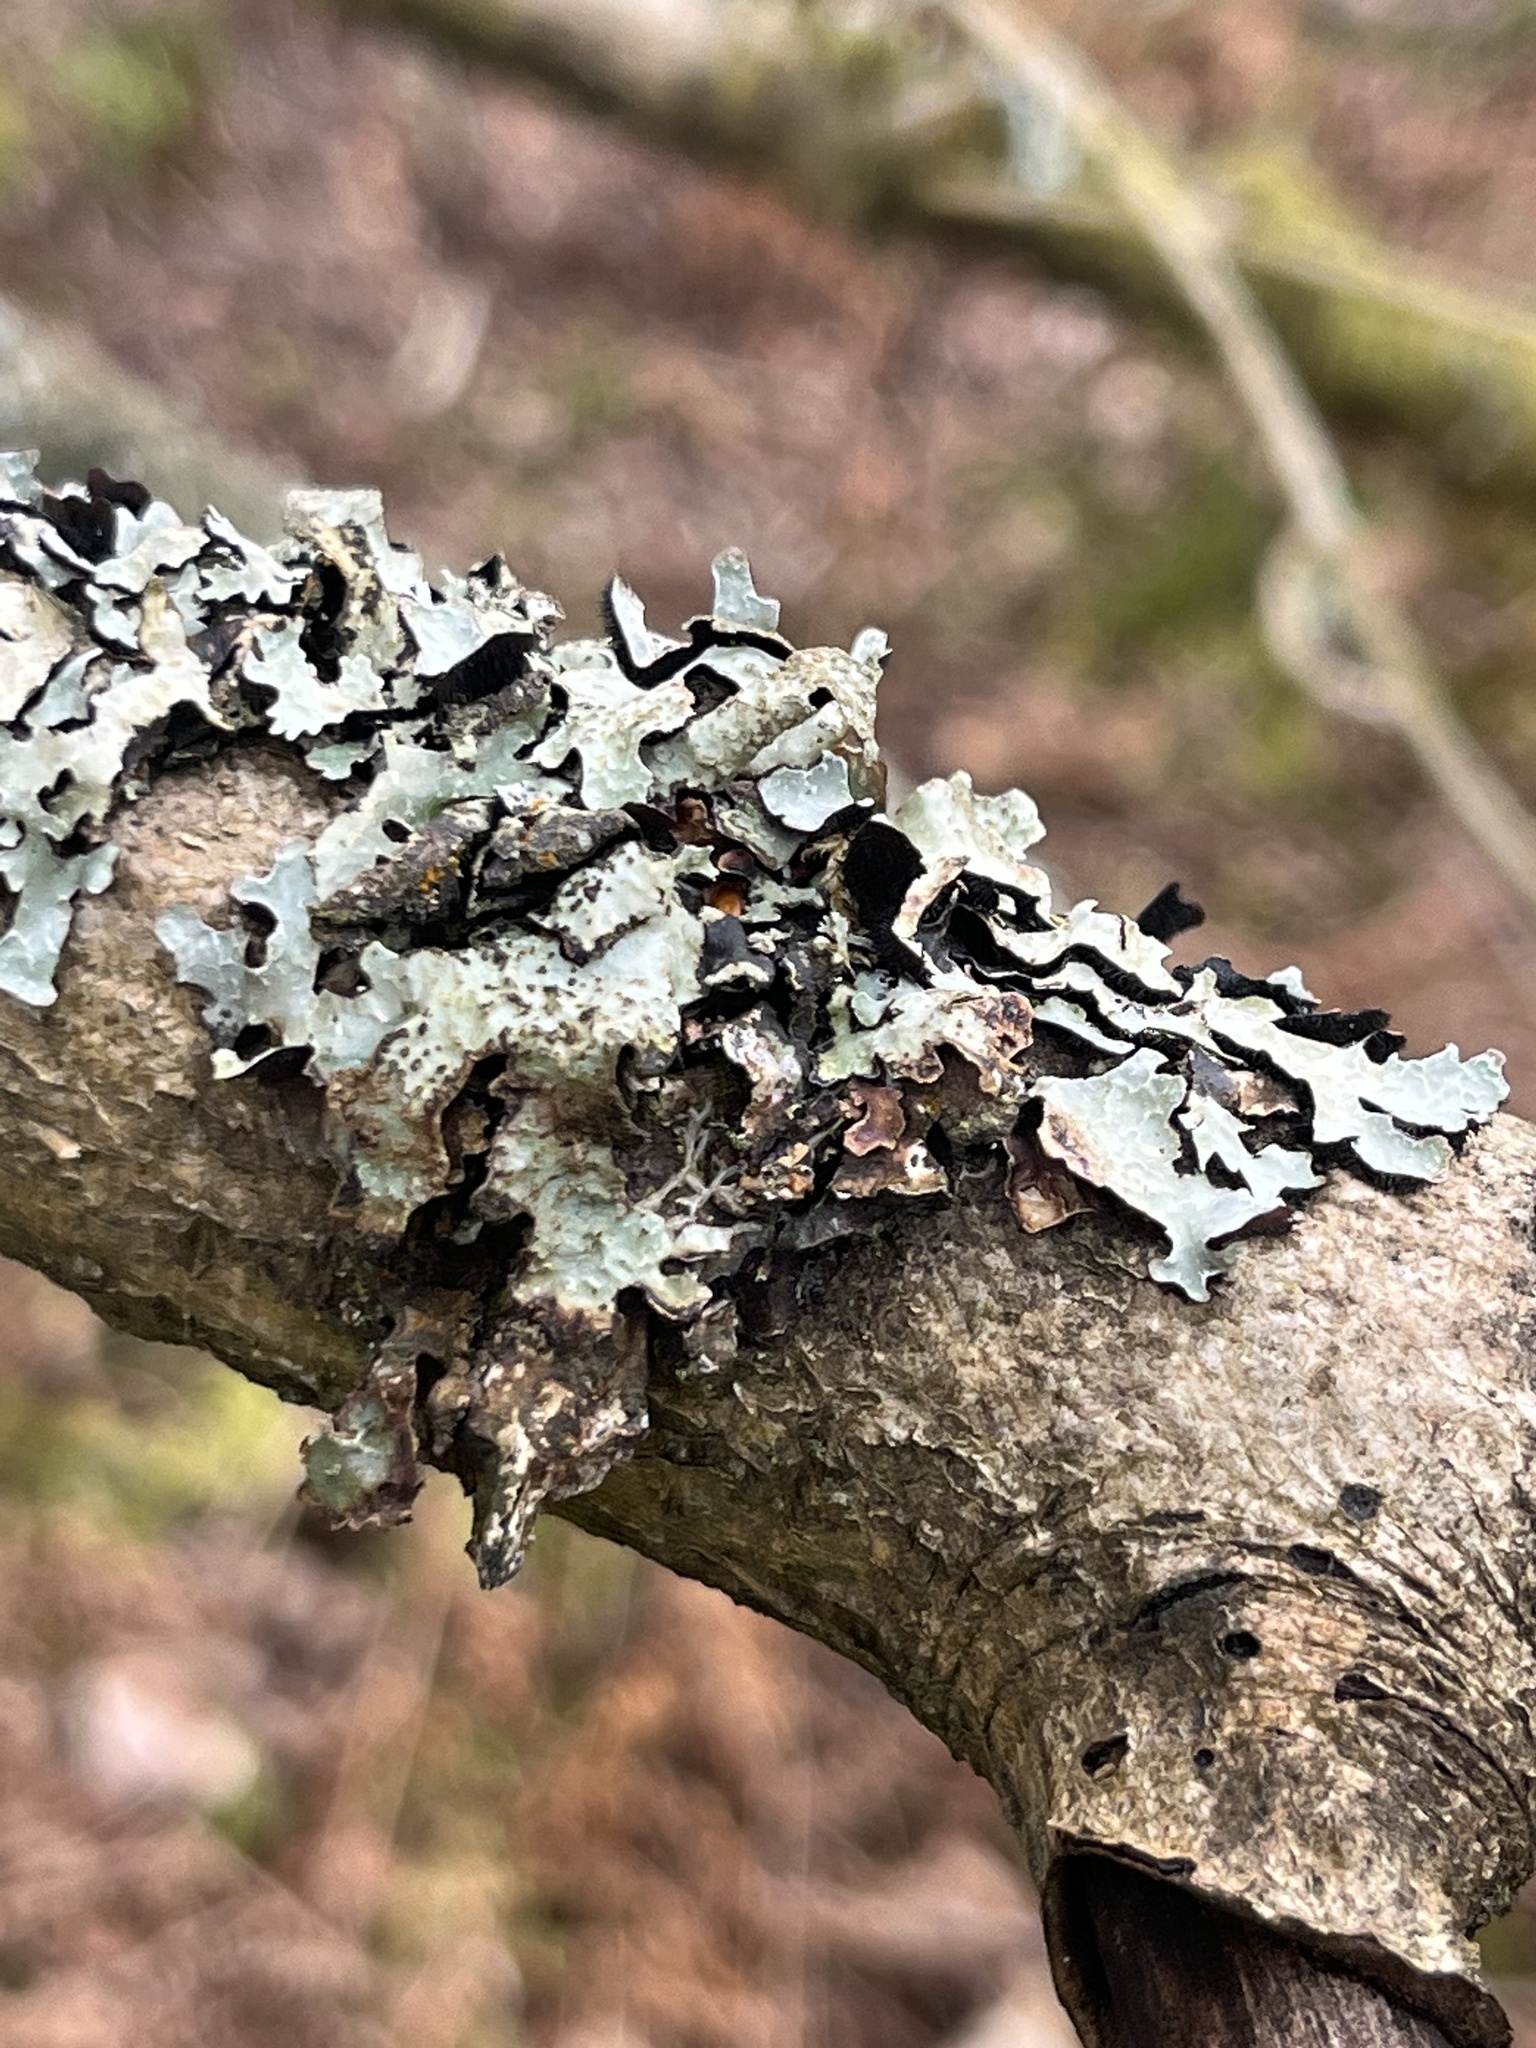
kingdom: Fungi
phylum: Ascomycota
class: Lecanoromycetes
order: Lecanorales
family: Parmeliaceae
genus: Parmelia
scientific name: Parmelia sulcata
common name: Netted shield lichen
